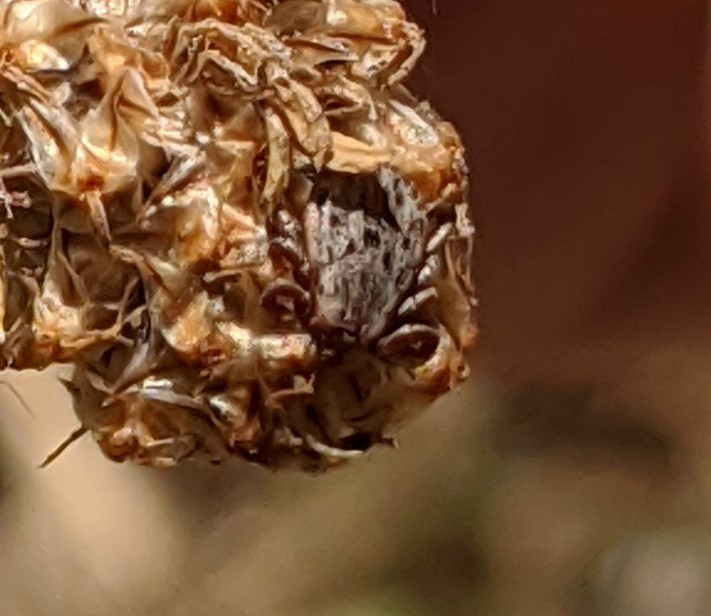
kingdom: Animalia
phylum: Arthropoda
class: Arachnida
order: Ixodida
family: Ixodidae
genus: Dermacentor
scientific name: Dermacentor occidentalis
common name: Net tick
